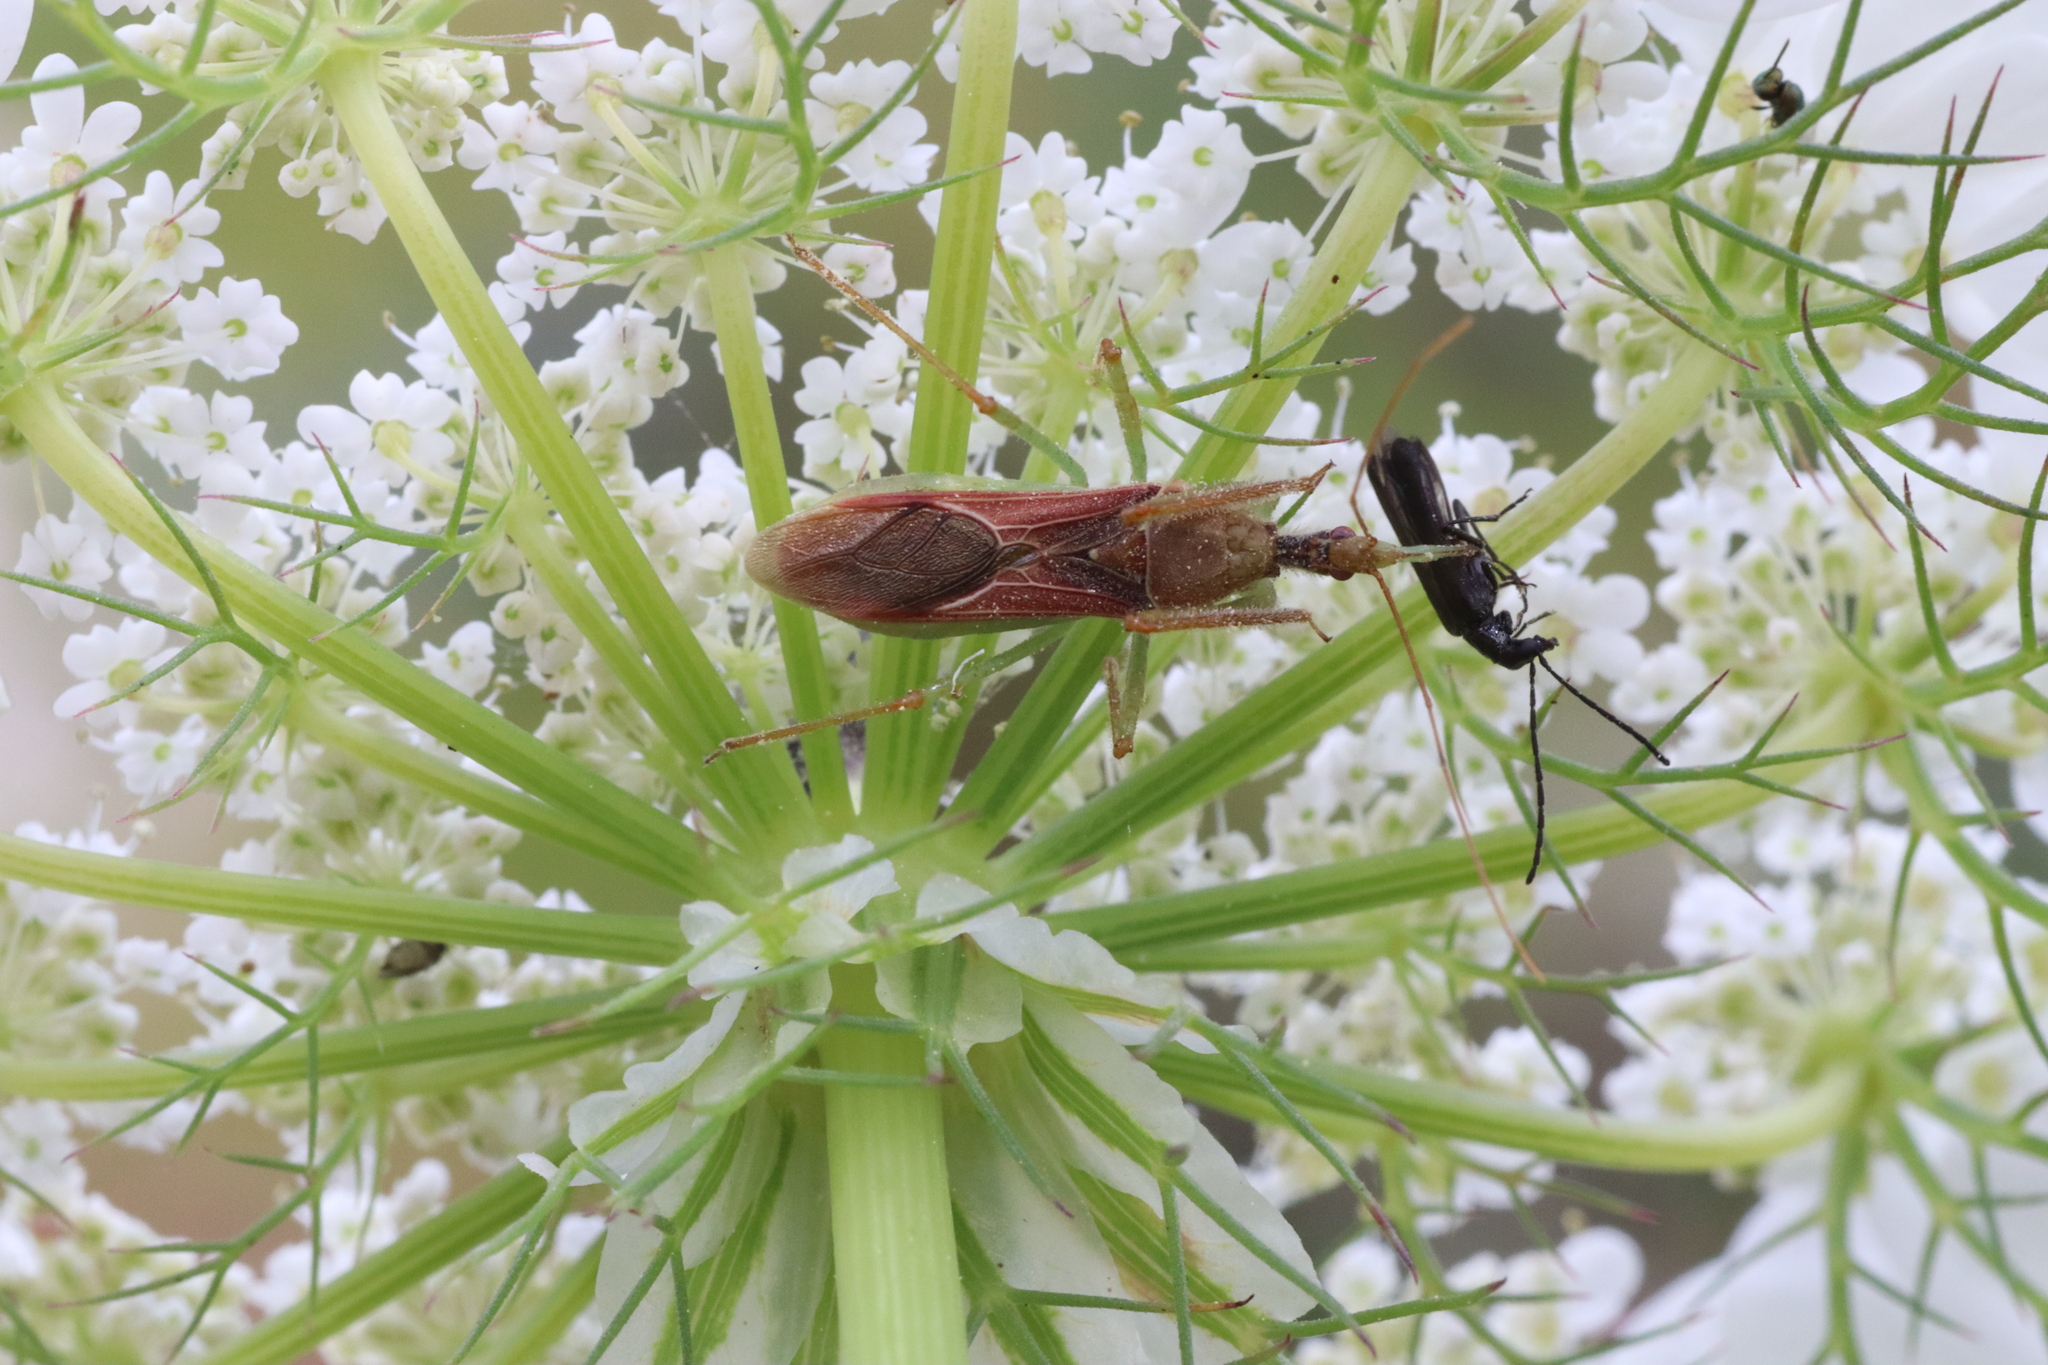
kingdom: Animalia
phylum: Arthropoda
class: Insecta
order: Hemiptera
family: Reduviidae
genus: Zelus
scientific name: Zelus renardii
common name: Assassin bug
